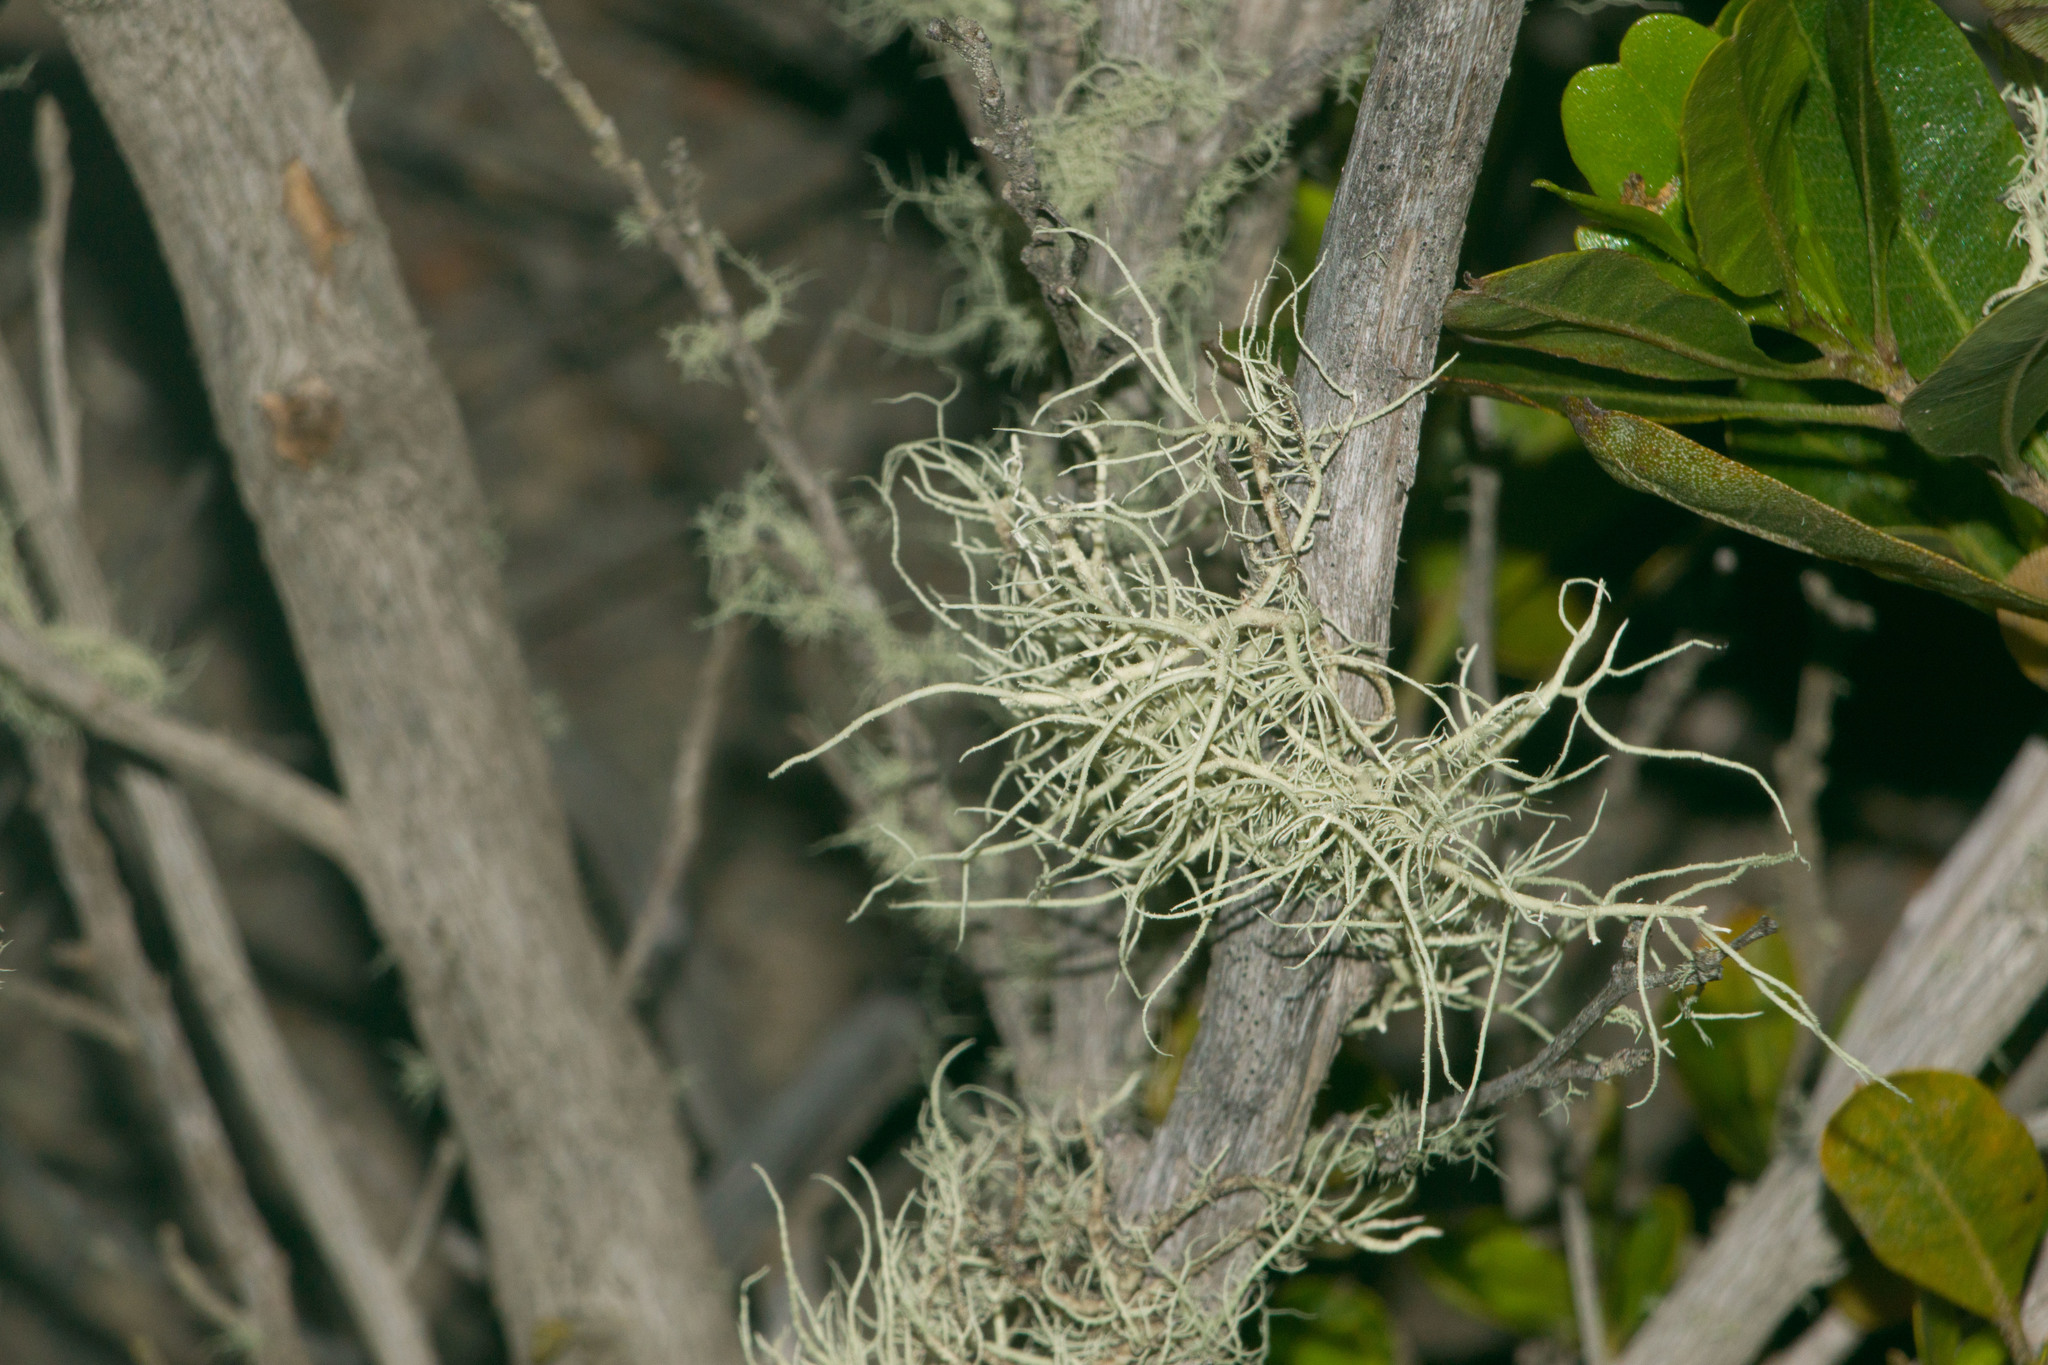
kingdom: Fungi
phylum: Ascomycota
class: Lecanoromycetes
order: Lecanorales
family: Parmeliaceae
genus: Usnea
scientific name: Usnea
